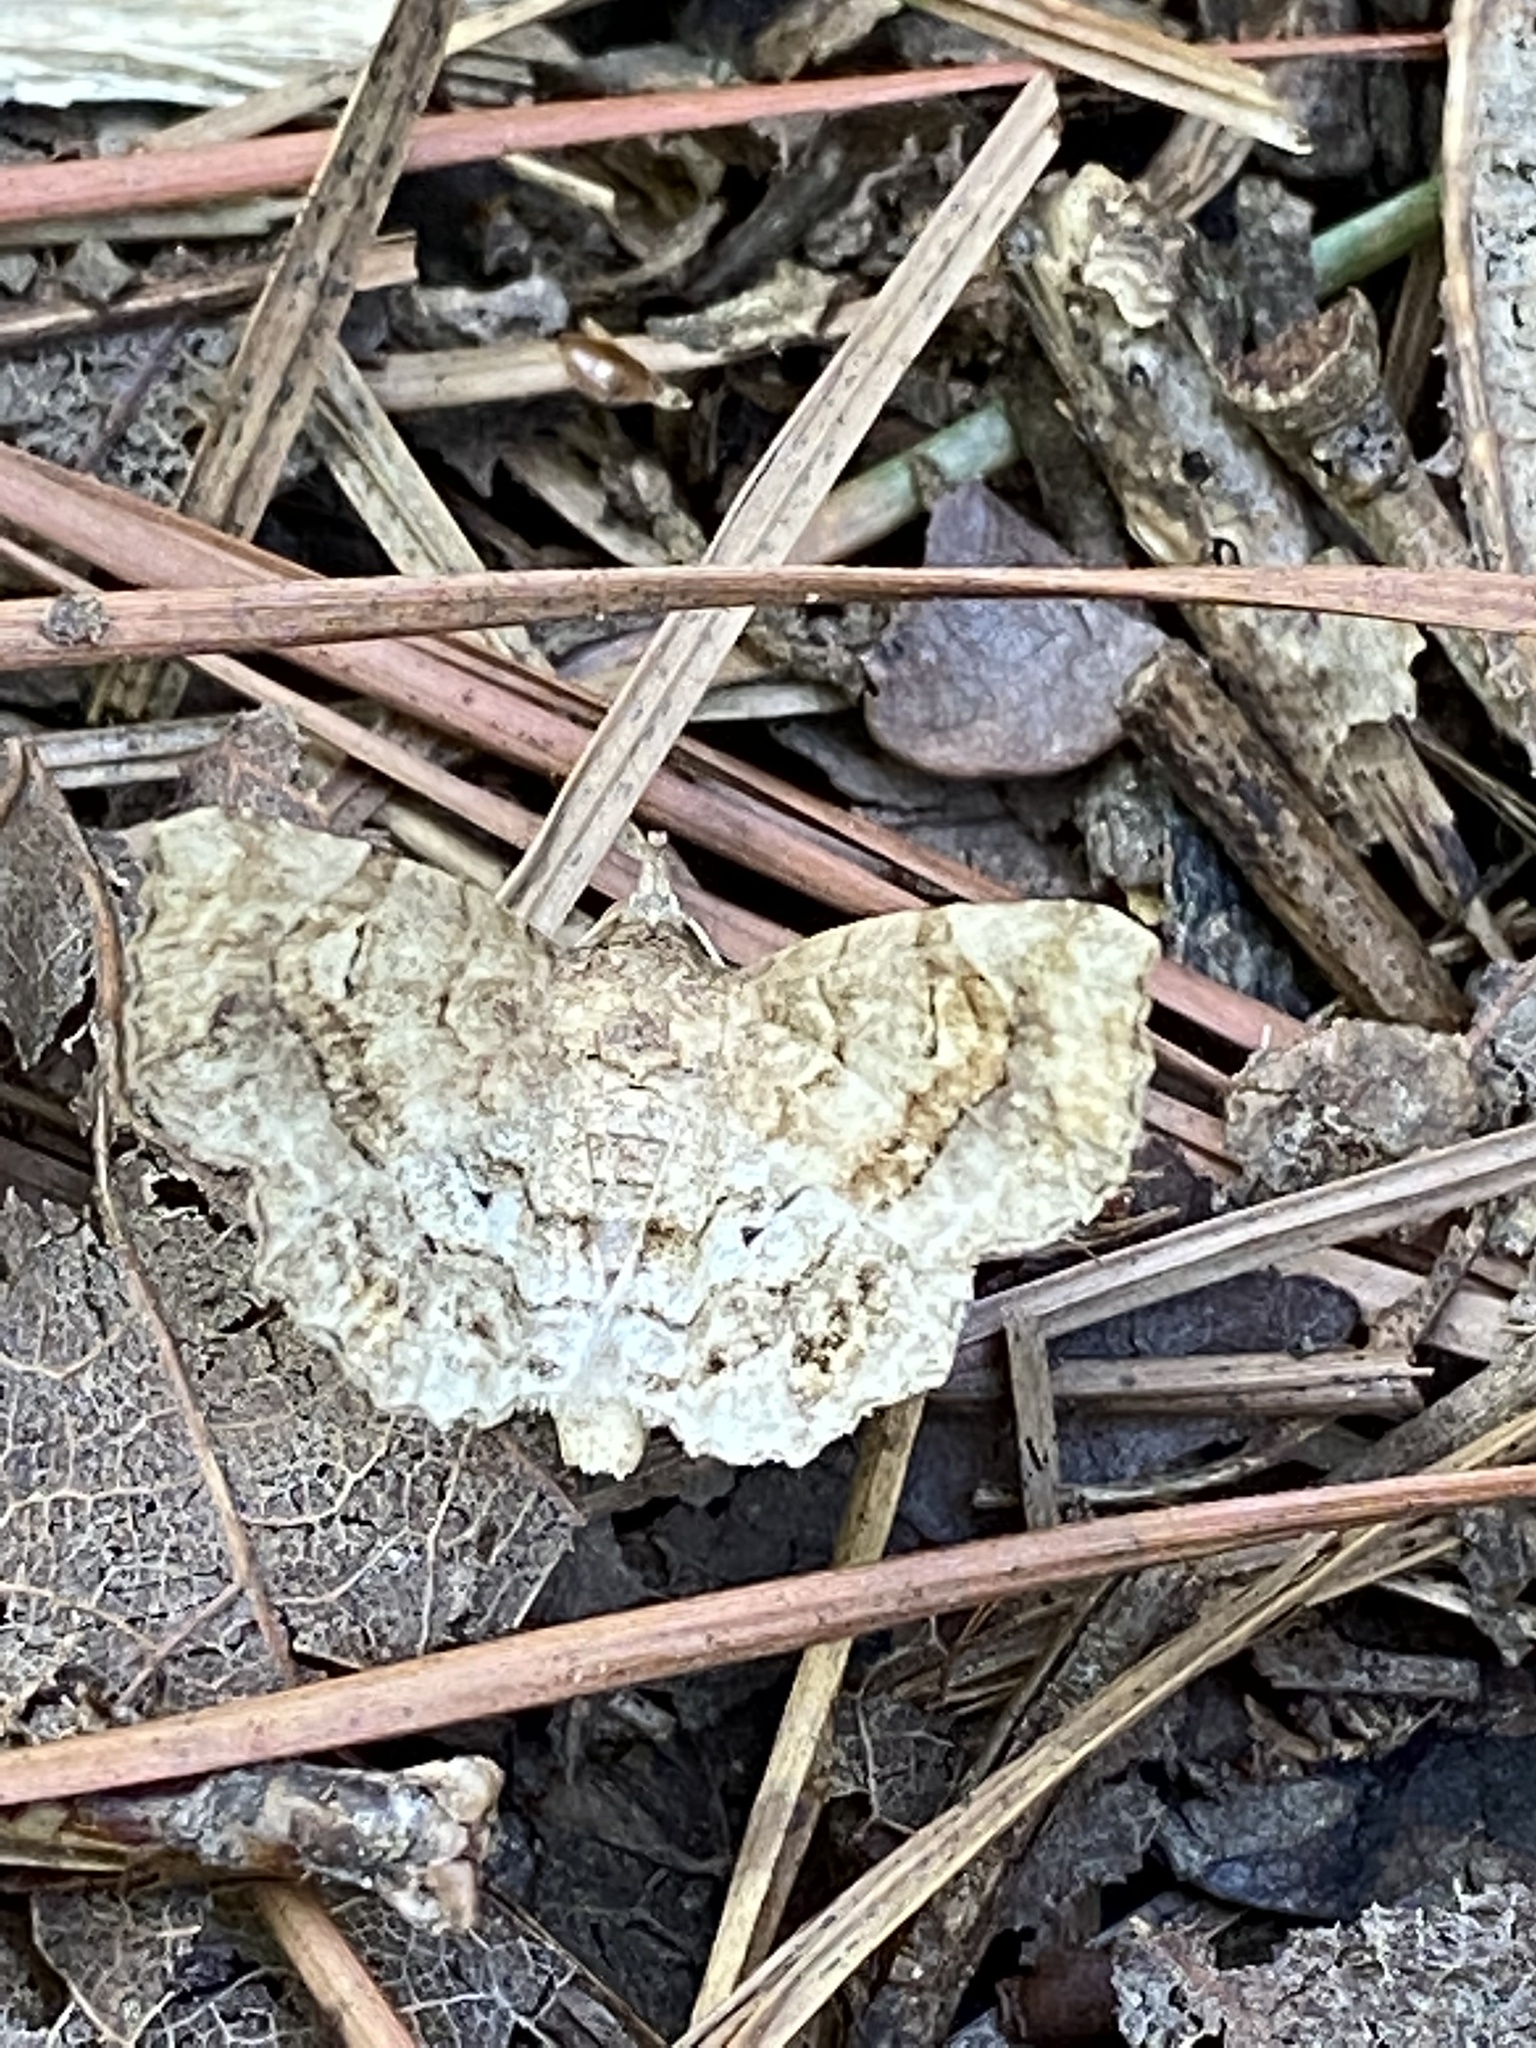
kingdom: Animalia
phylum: Arthropoda
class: Insecta
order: Lepidoptera
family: Erebidae
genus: Pangrapta
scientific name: Pangrapta decoralis
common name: Decorated owlet
